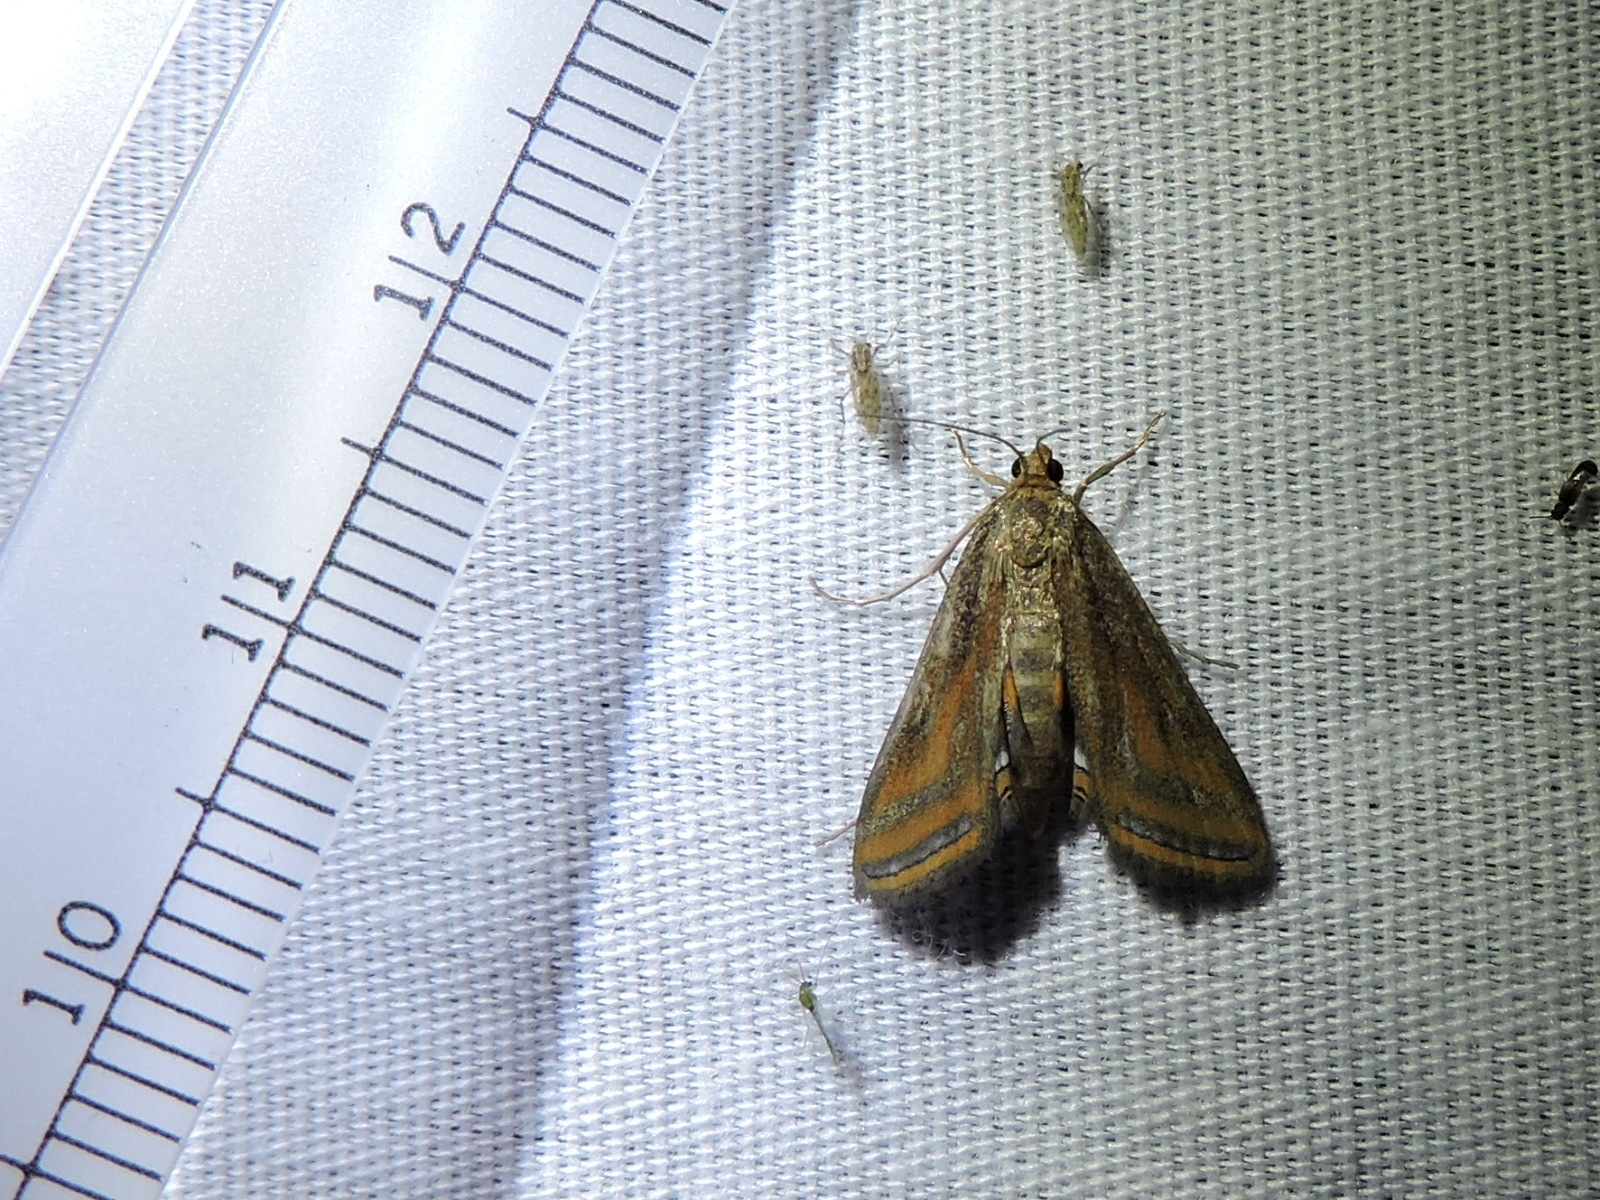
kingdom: Animalia
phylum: Arthropoda
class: Insecta
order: Lepidoptera
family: Crambidae
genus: Parapoynx
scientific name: Parapoynx seminealis
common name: Floating-heart waterlily leafcutter
